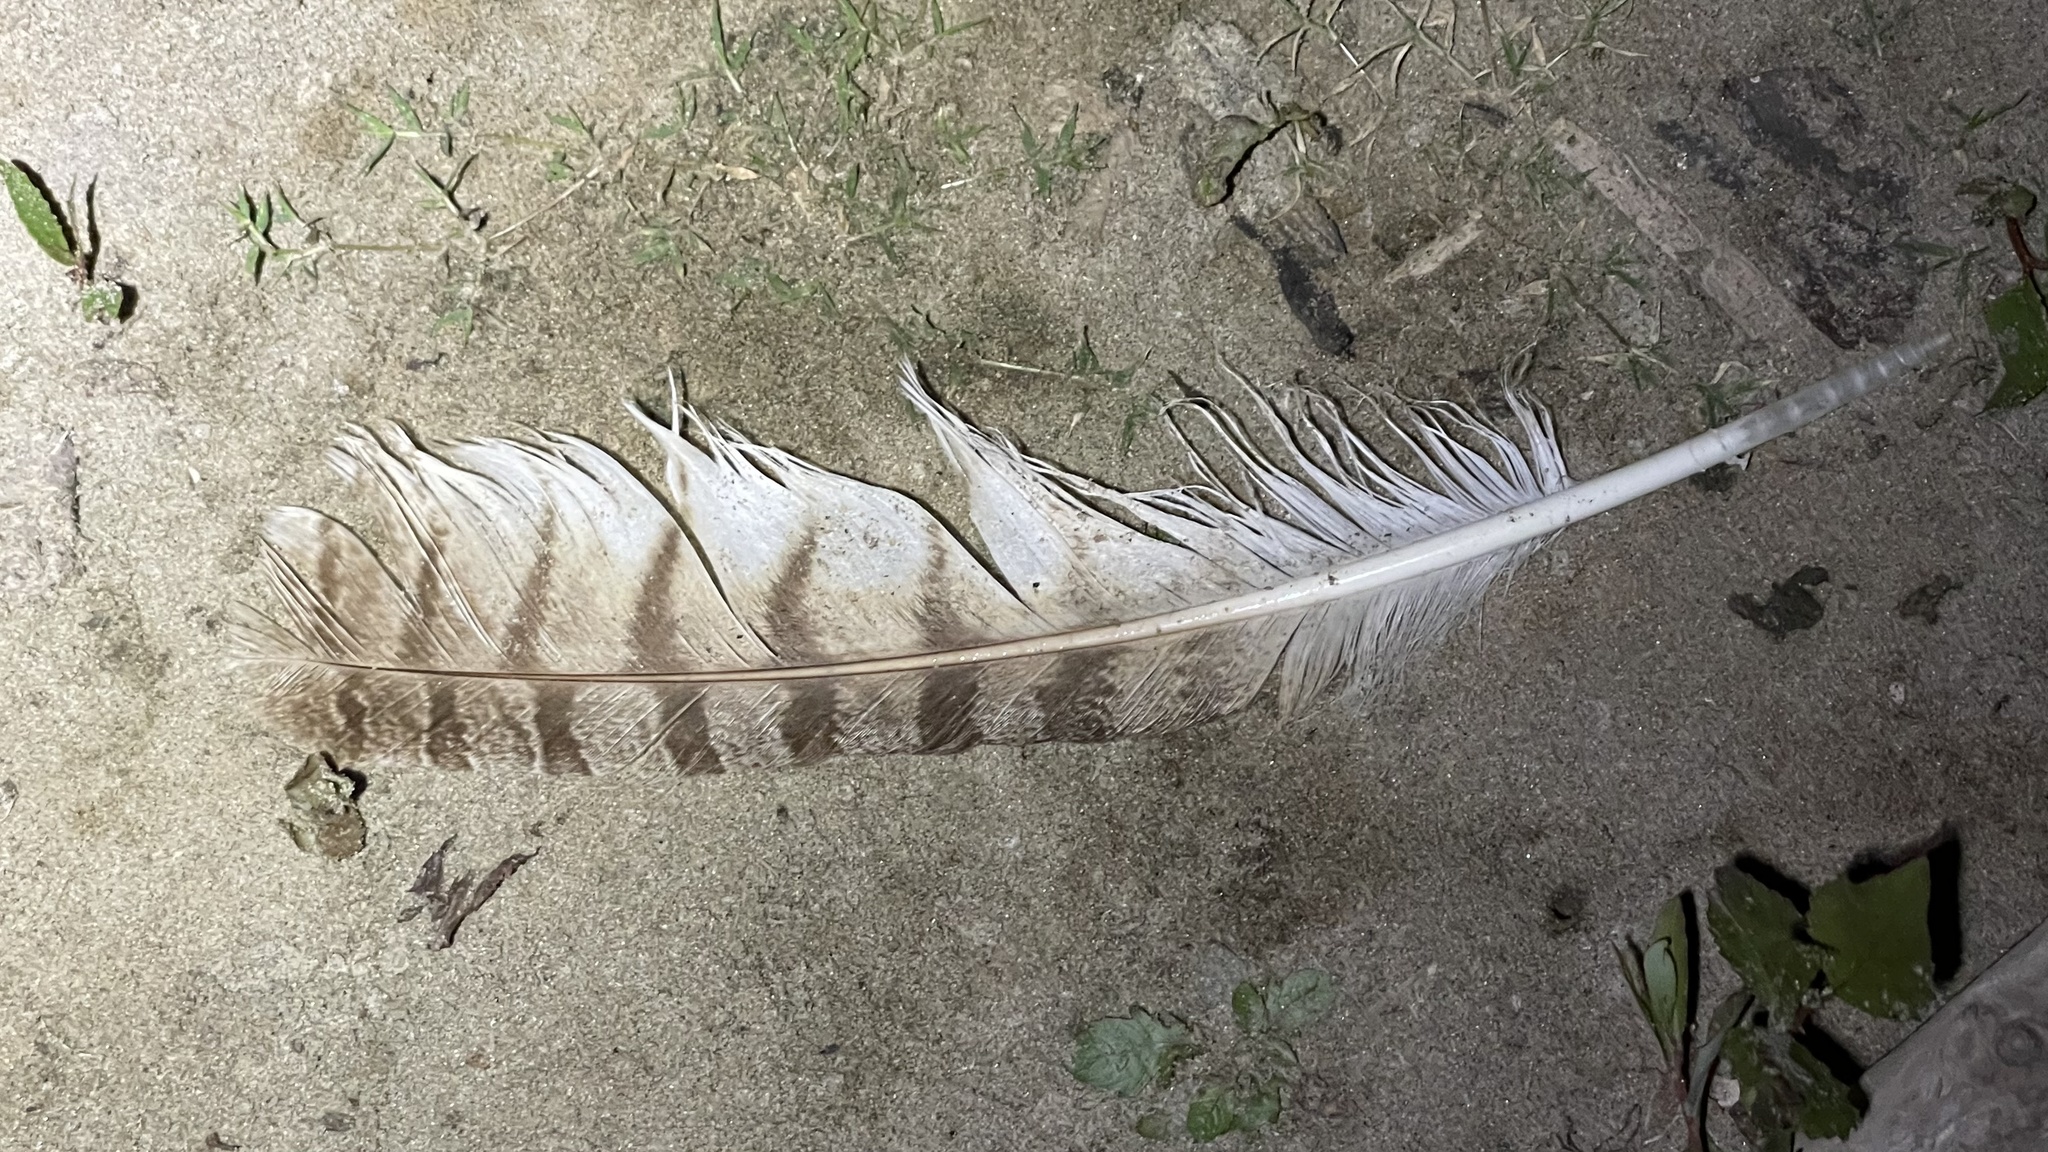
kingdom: Animalia
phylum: Chordata
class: Aves
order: Strigiformes
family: Strigidae
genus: Bubo
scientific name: Bubo virginianus
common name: Great horned owl
